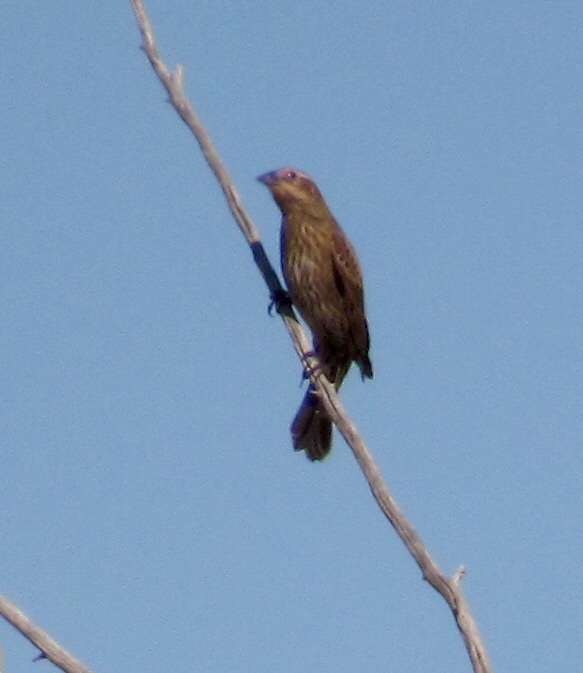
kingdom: Animalia
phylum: Chordata
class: Aves
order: Passeriformes
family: Icteridae
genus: Agelaius
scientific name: Agelaius phoeniceus
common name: Red-winged blackbird
